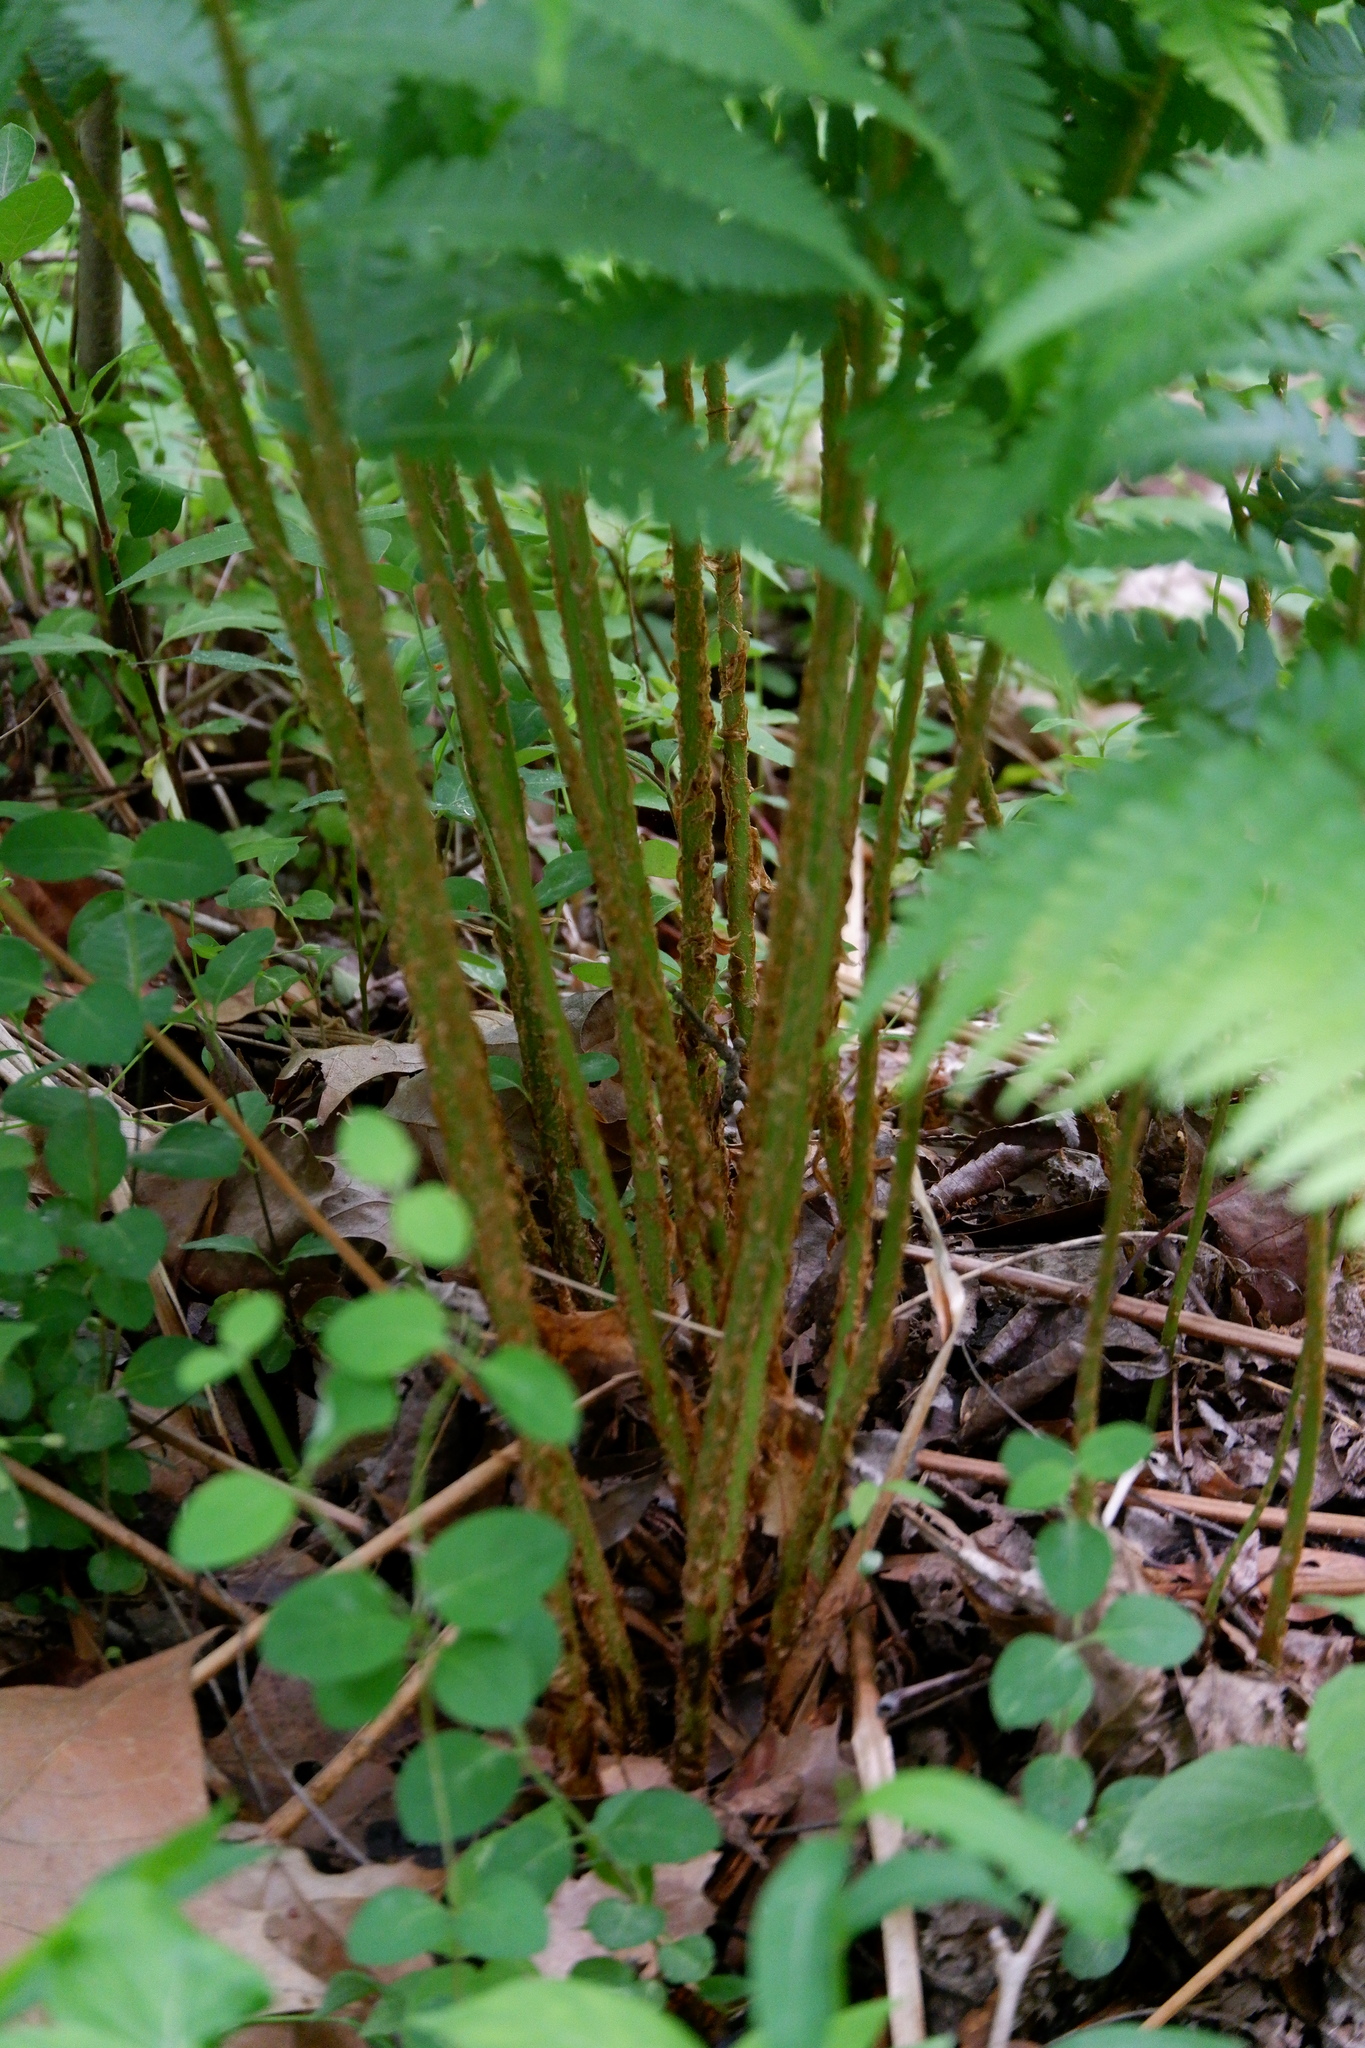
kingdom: Plantae
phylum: Tracheophyta
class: Polypodiopsida
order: Polypodiales
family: Dryopteridaceae
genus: Dryopteris
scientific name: Dryopteris celsa
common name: Log fern
